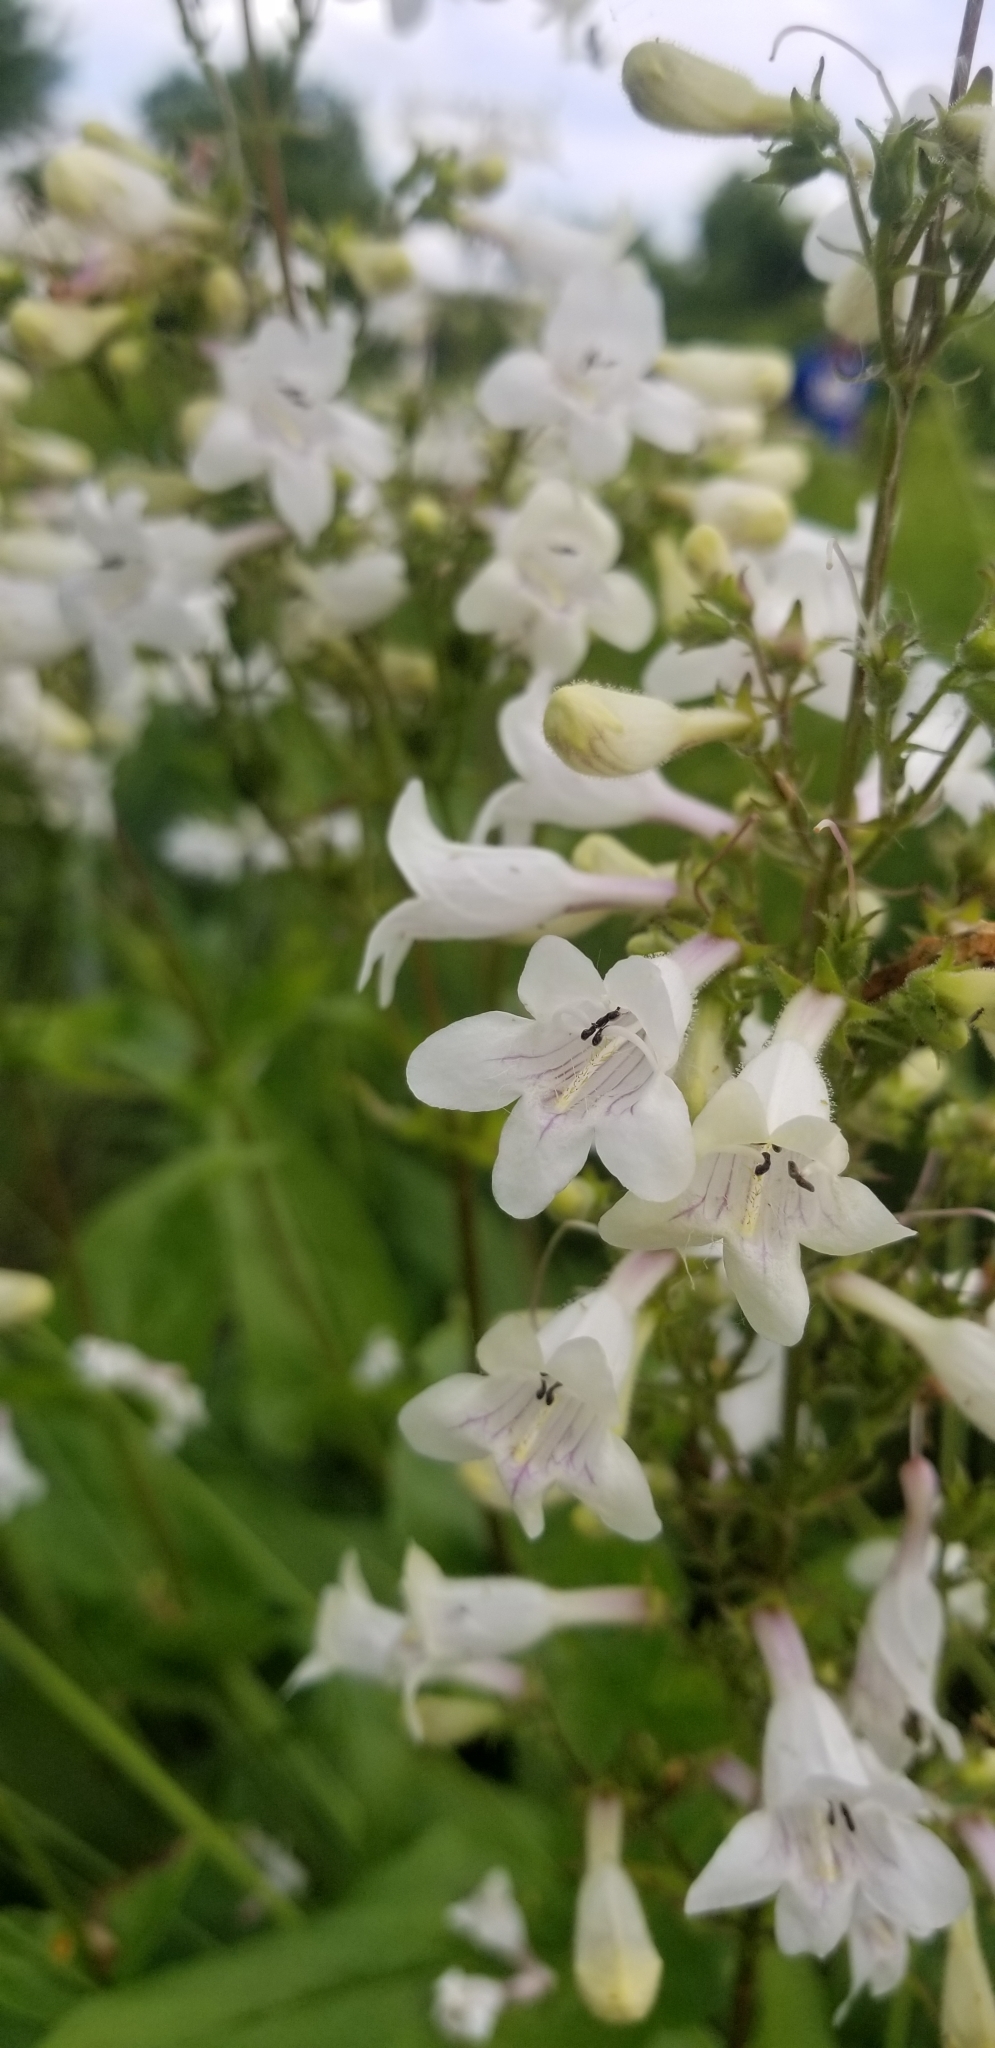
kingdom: Plantae
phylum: Tracheophyta
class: Magnoliopsida
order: Lamiales
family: Plantaginaceae
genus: Penstemon
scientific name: Penstemon digitalis
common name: Foxglove beardtongue
